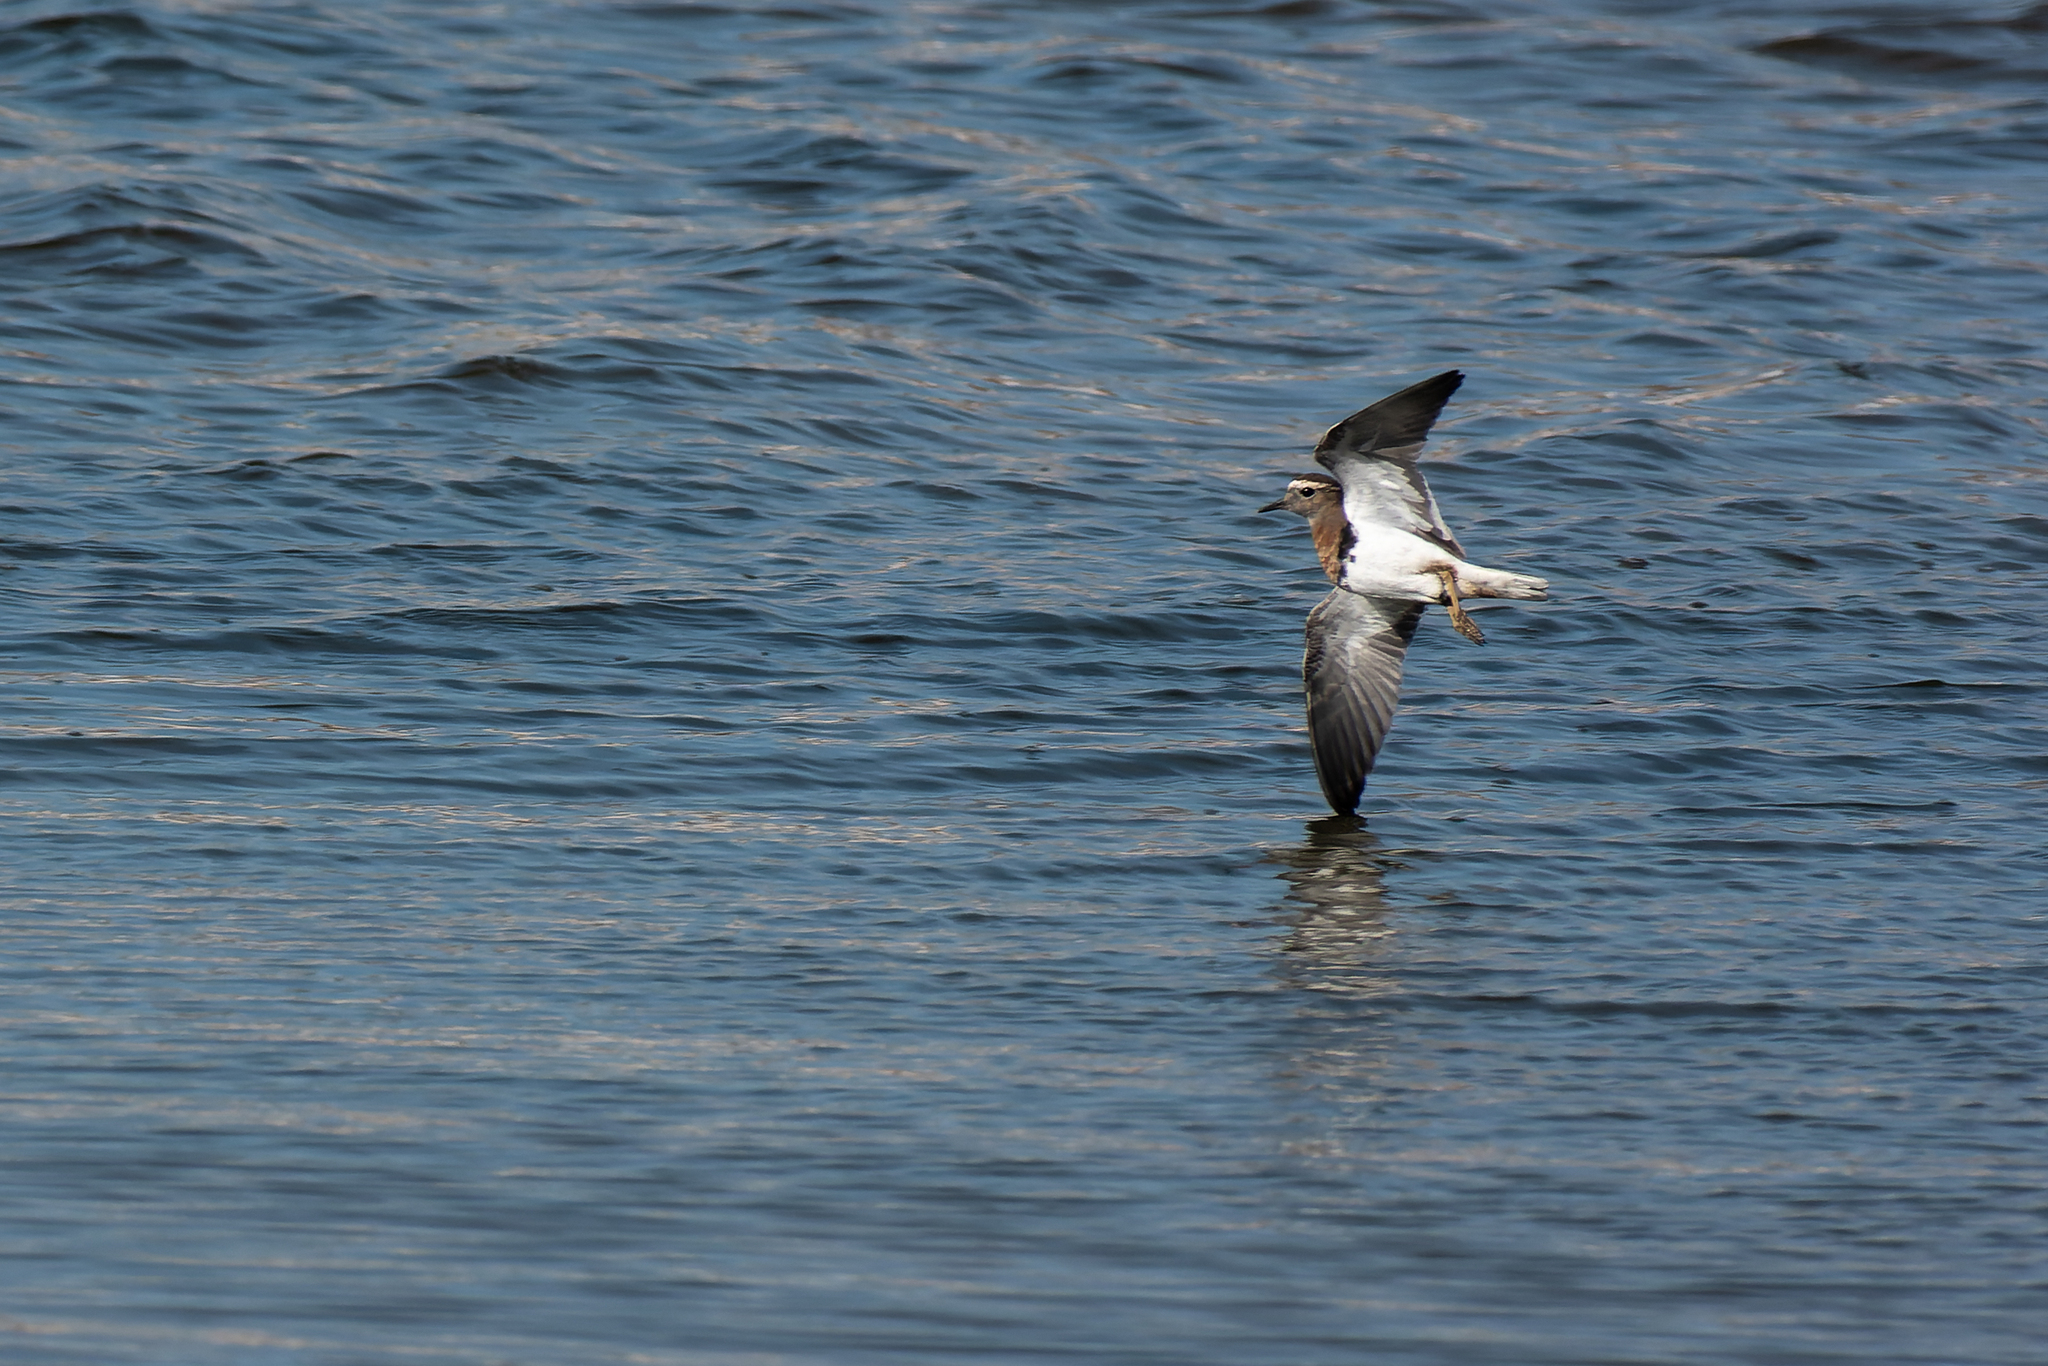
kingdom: Animalia
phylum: Chordata
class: Aves
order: Charadriiformes
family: Charadriidae
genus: Charadrius
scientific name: Charadrius modestus
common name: Rufous-chested plover
